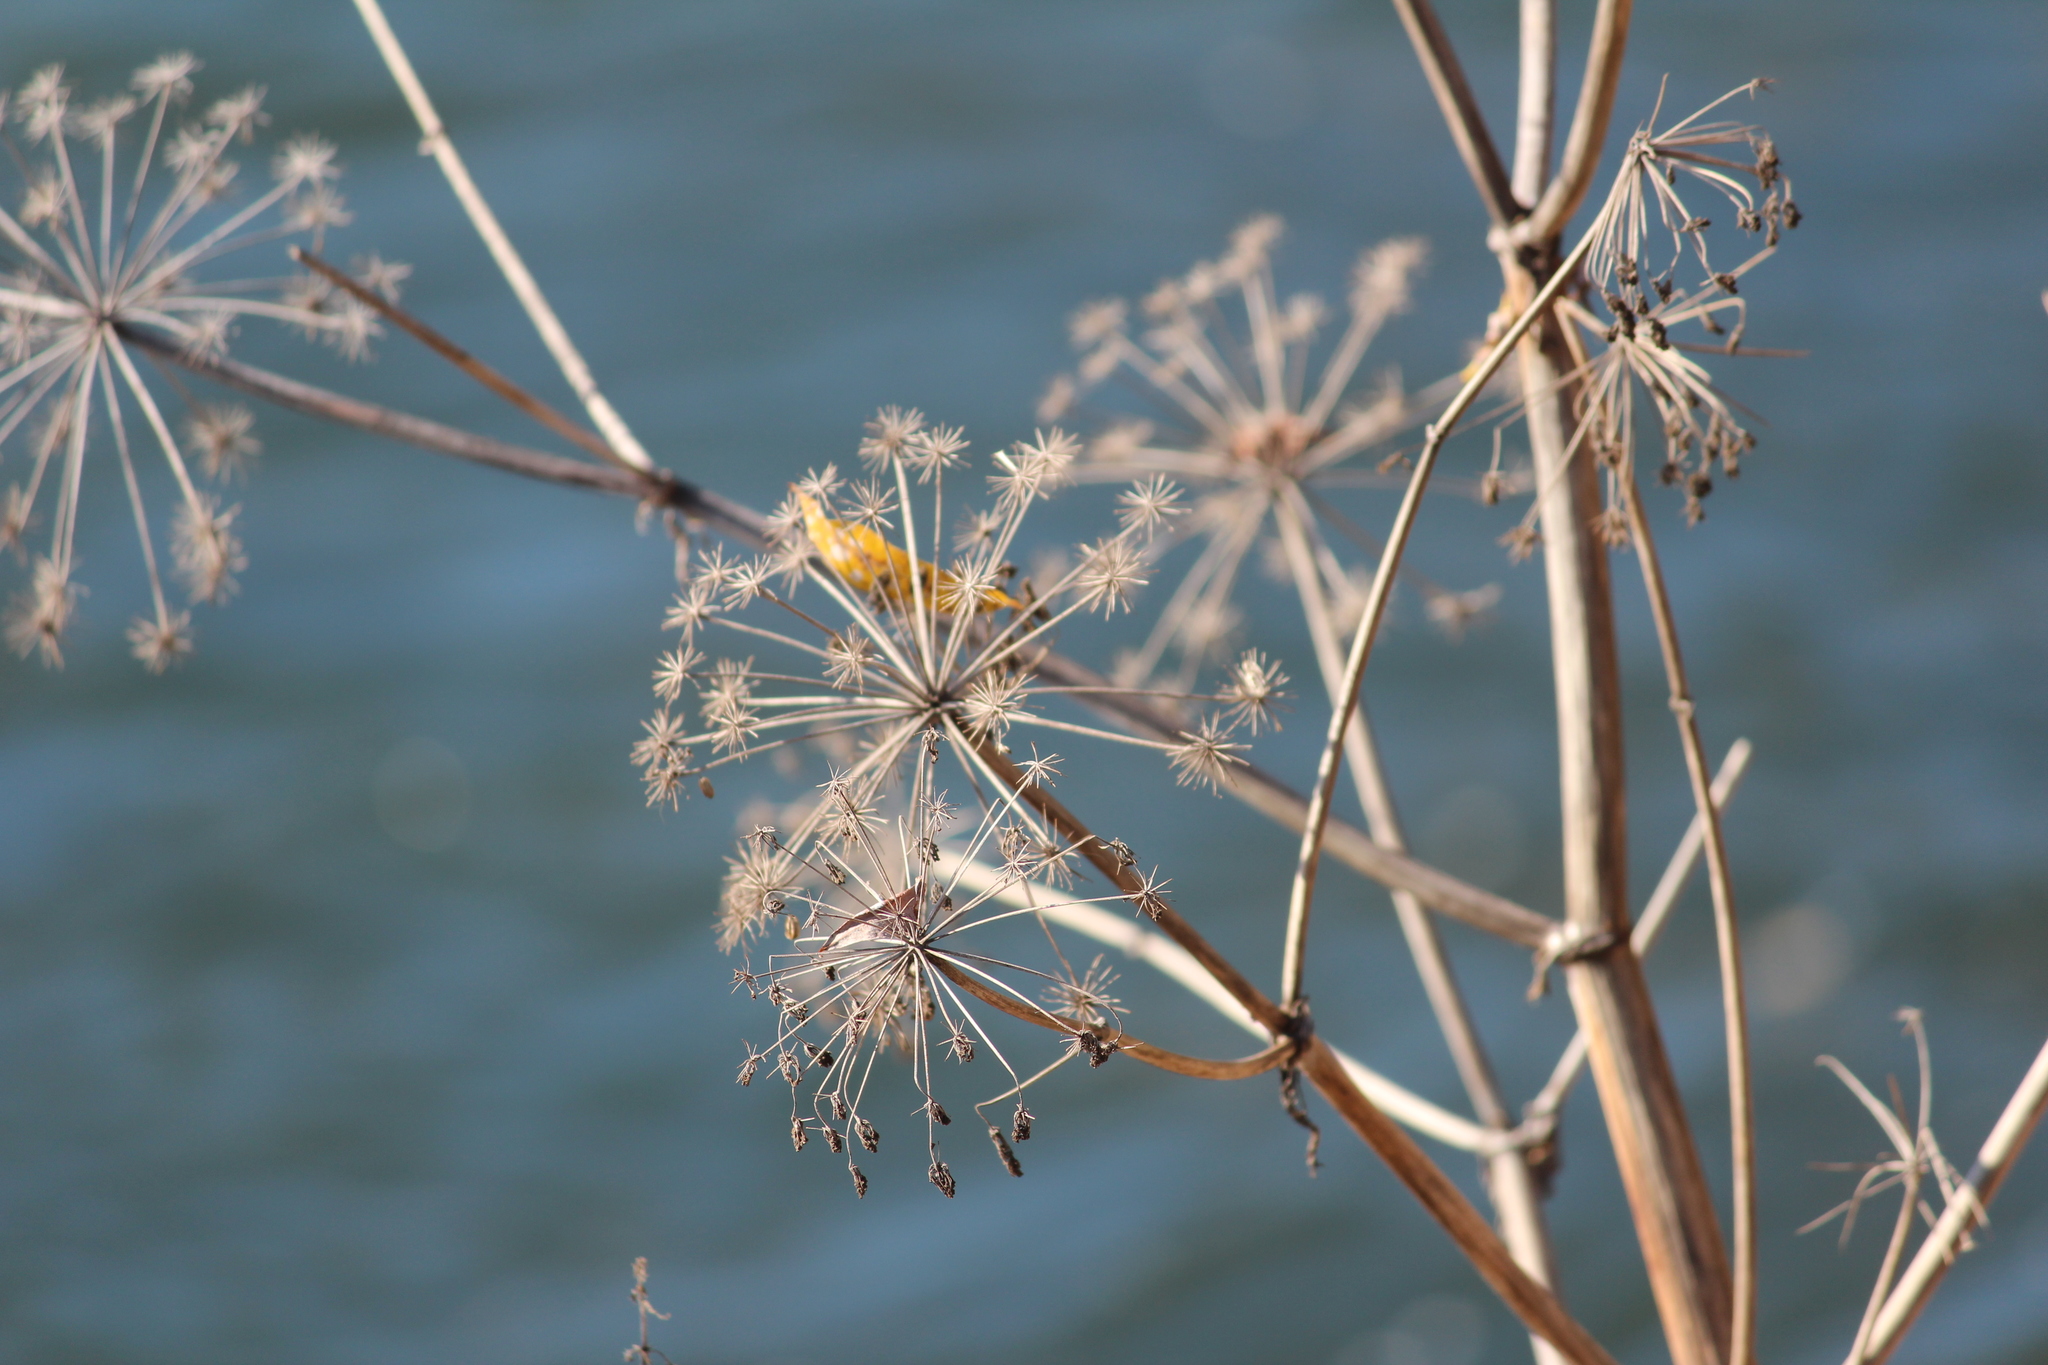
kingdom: Plantae
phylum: Tracheophyta
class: Magnoliopsida
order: Apiales
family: Apiaceae
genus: Angelica
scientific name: Angelica decurrens
